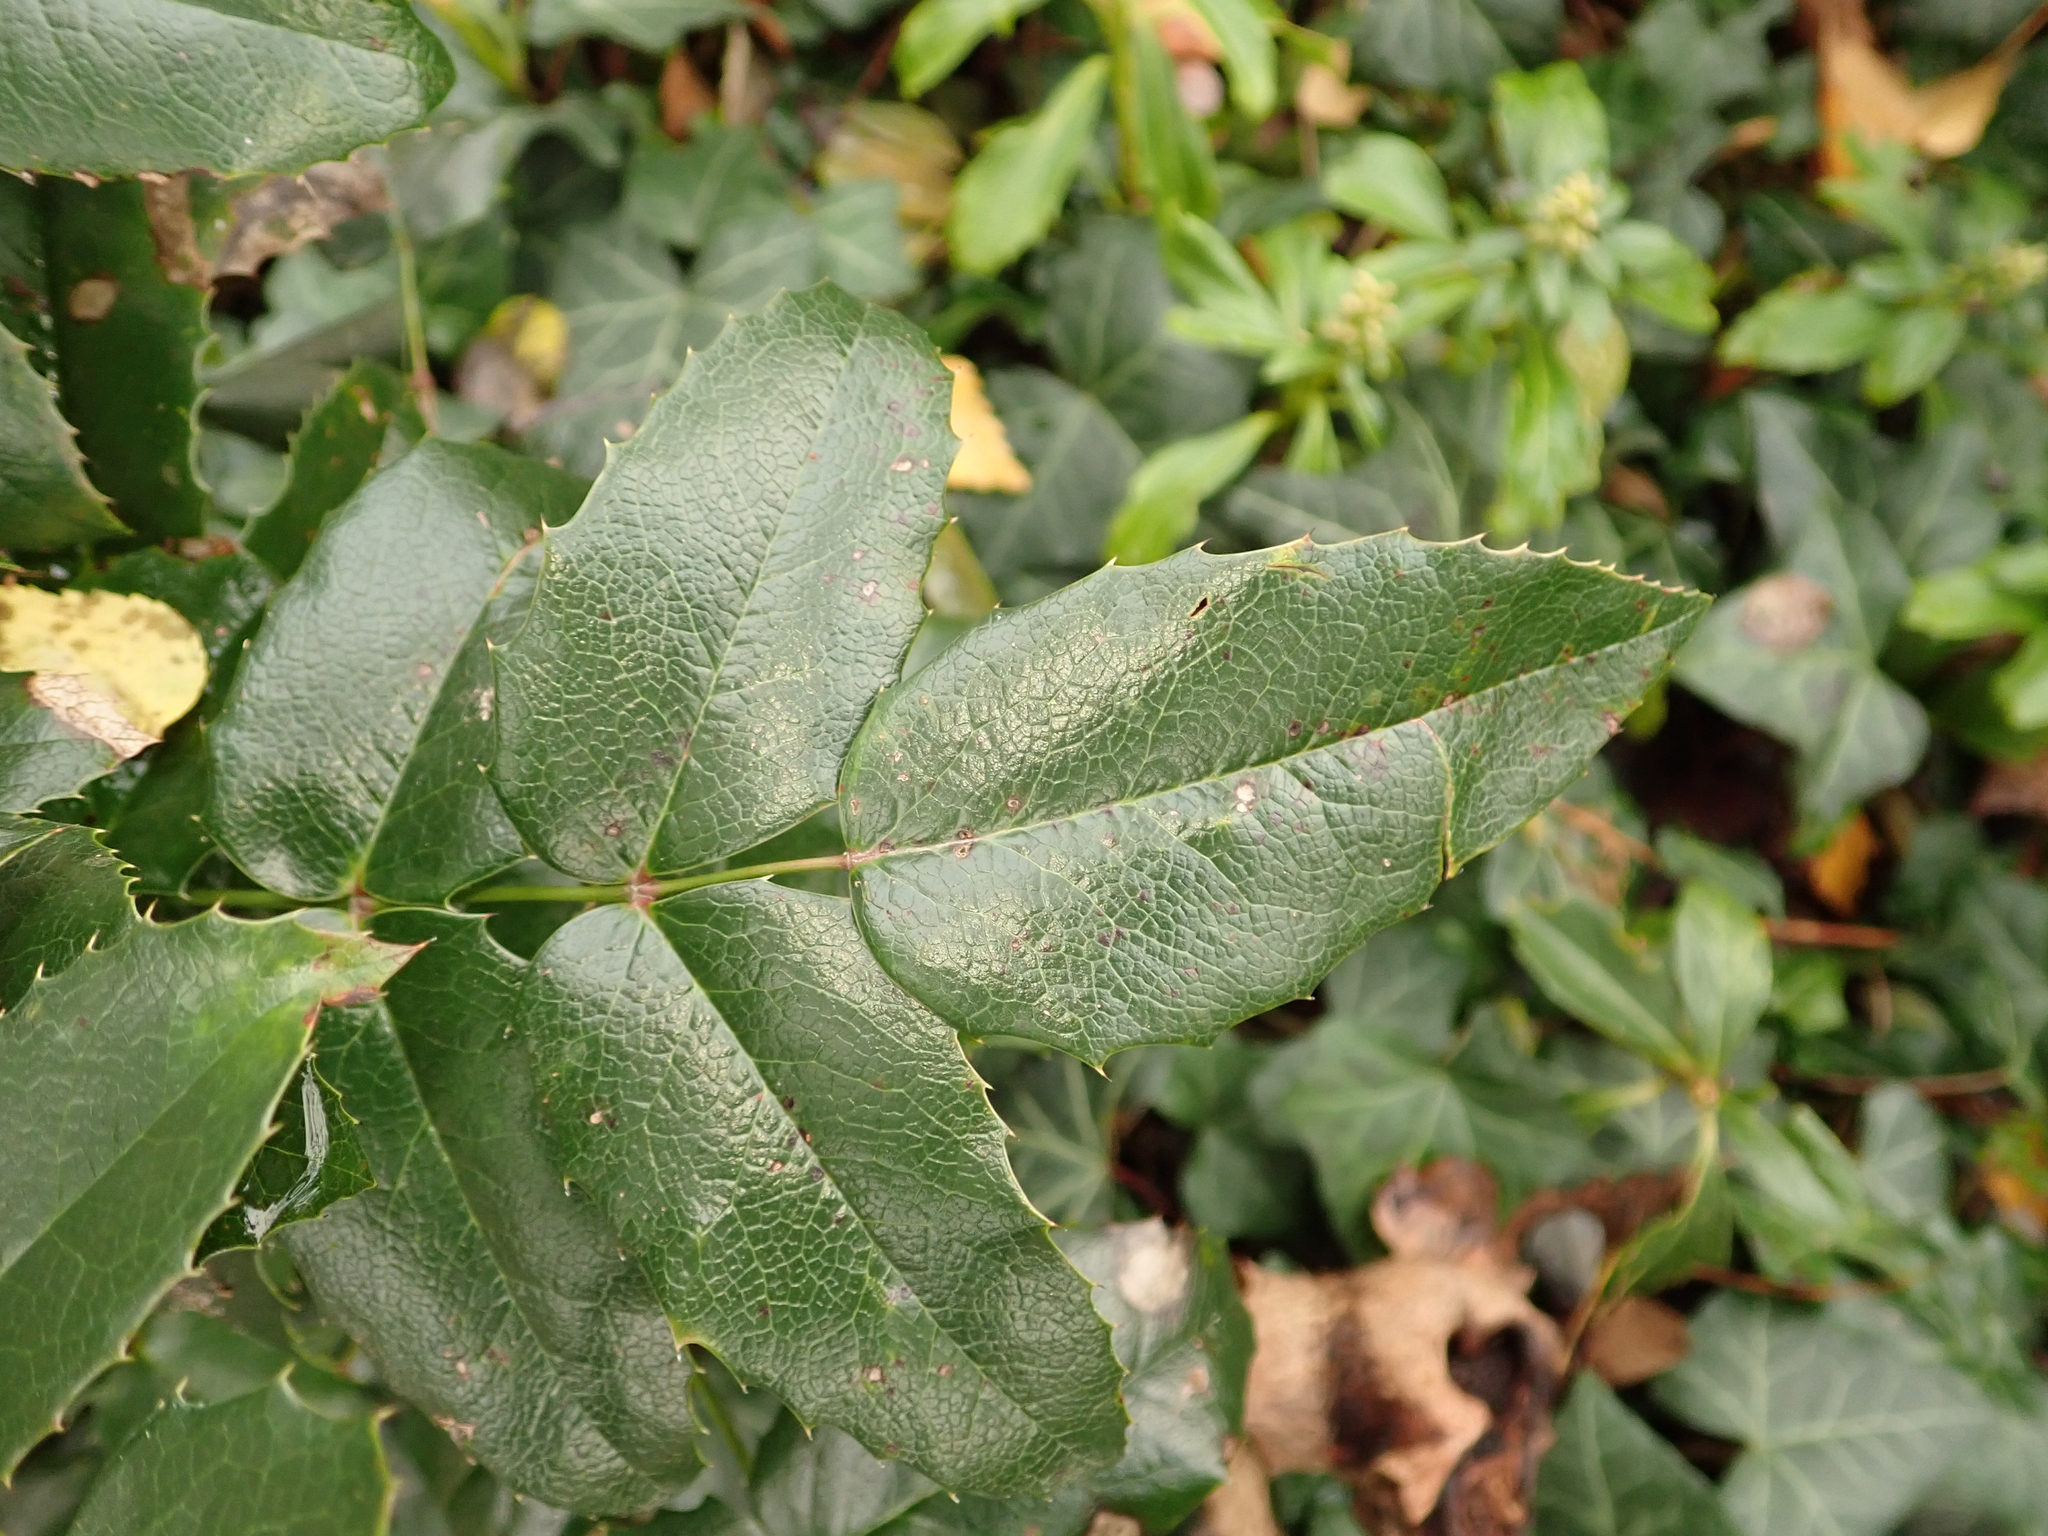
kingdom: Plantae
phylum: Tracheophyta
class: Magnoliopsida
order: Ranunculales
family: Berberidaceae
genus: Mahonia
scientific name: Mahonia aquifolium
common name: Oregon-grape
